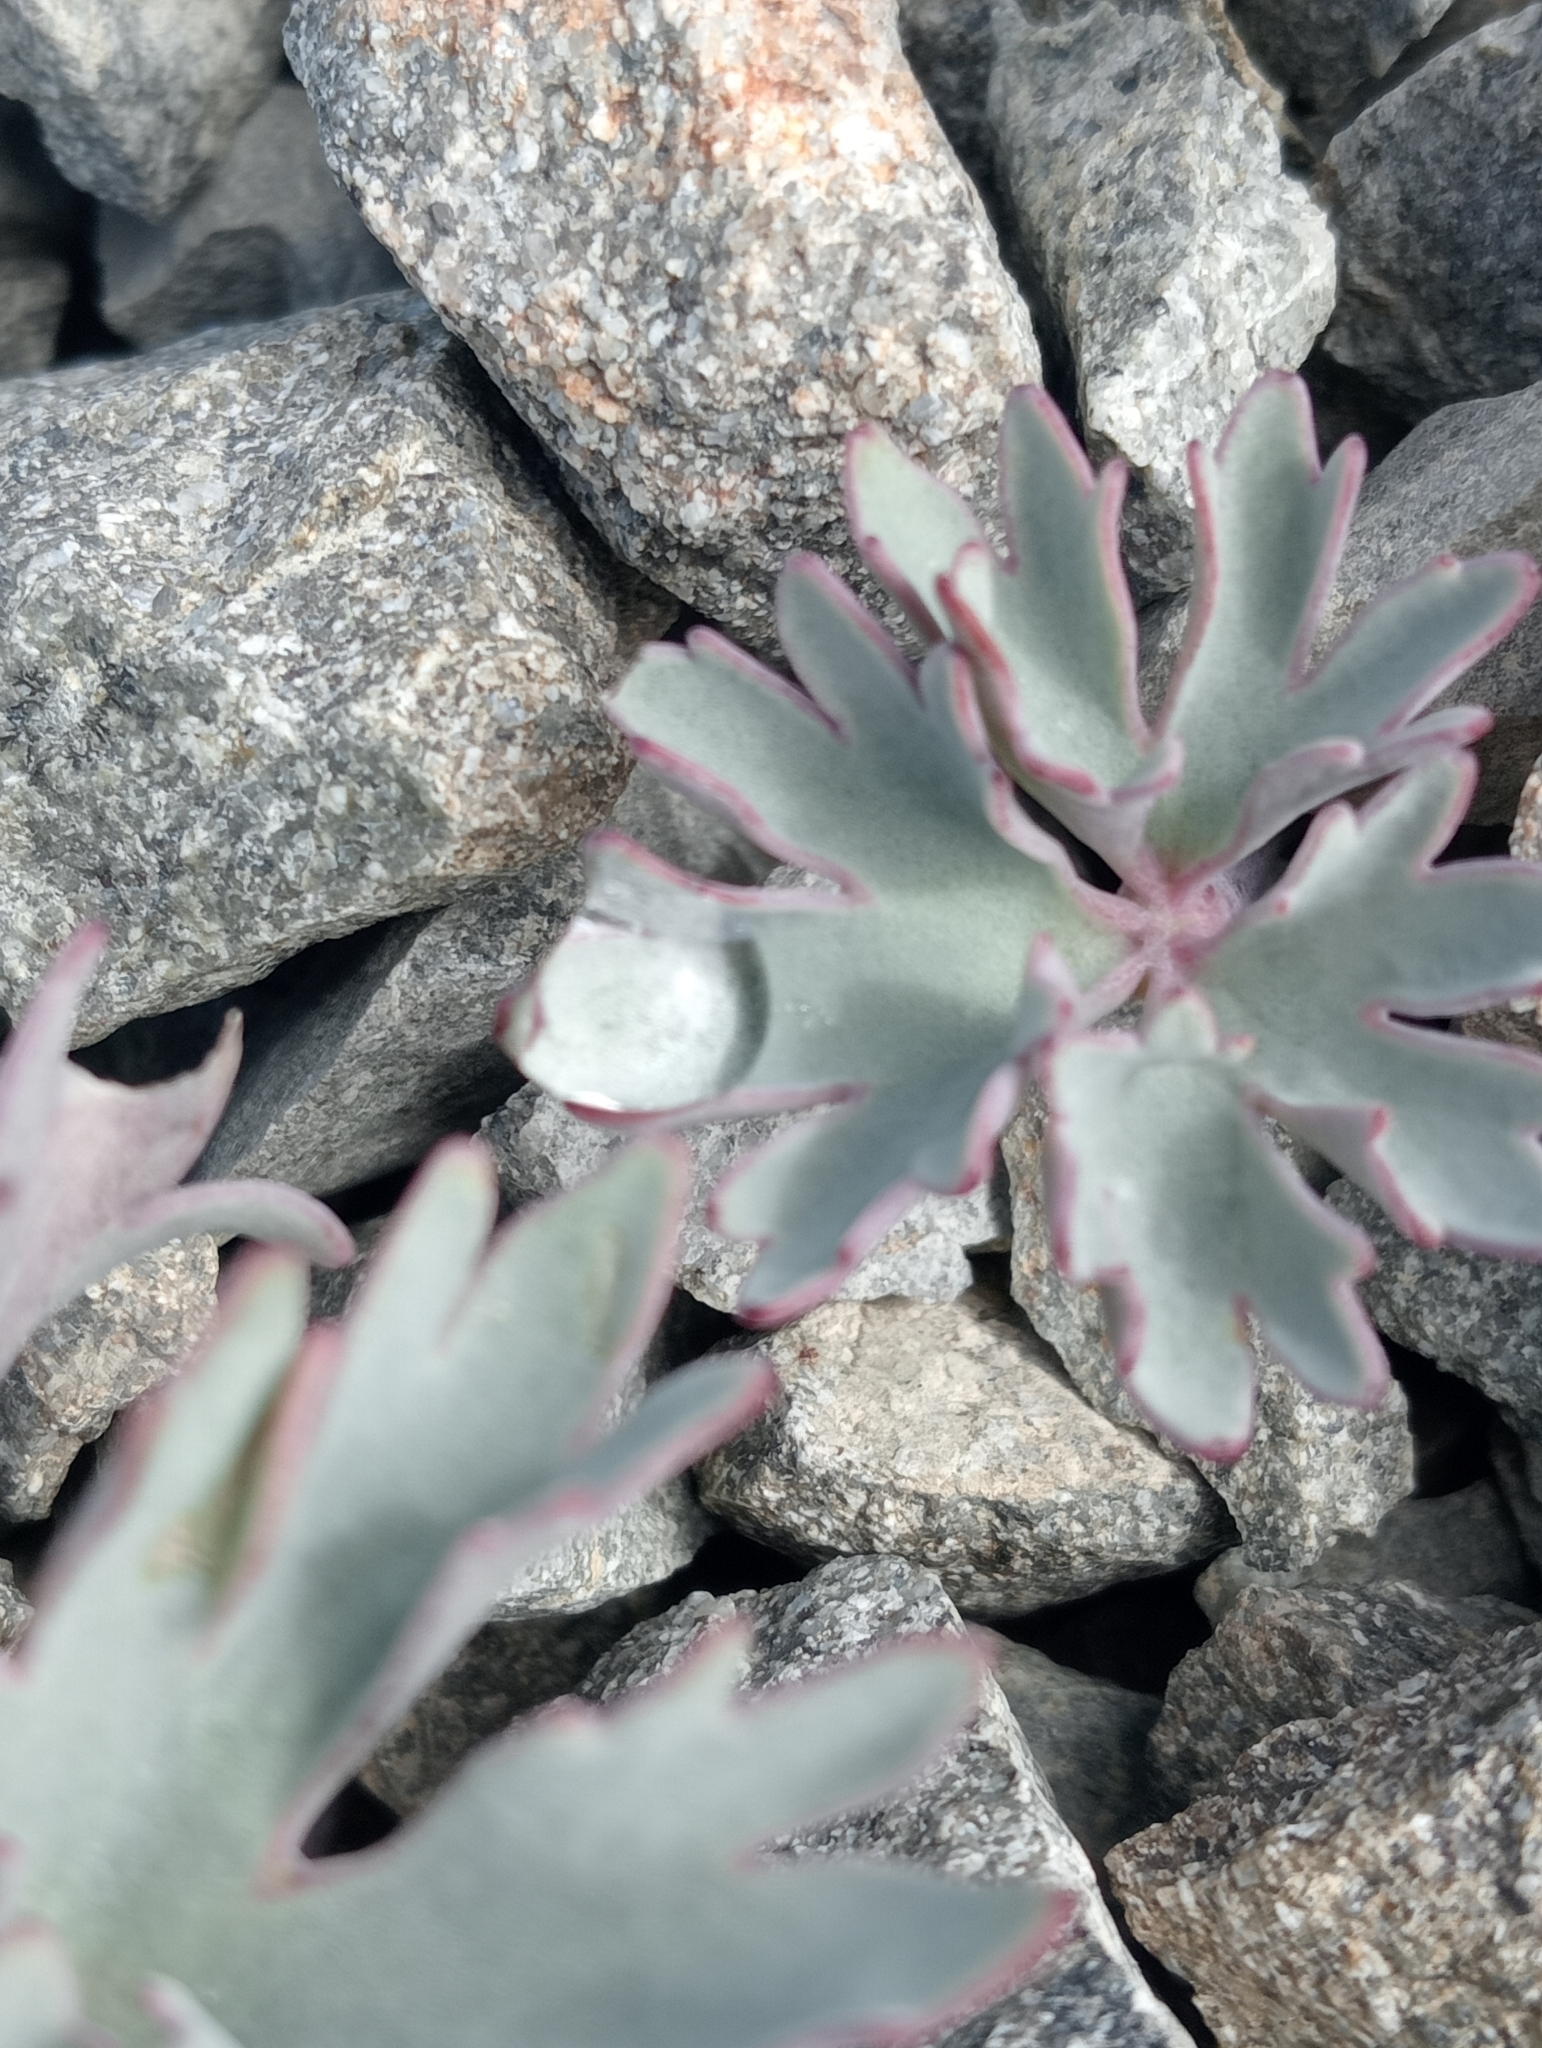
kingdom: Plantae
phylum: Tracheophyta
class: Magnoliopsida
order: Ranunculales
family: Ranunculaceae
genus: Ranunculus
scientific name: Ranunculus haastii
